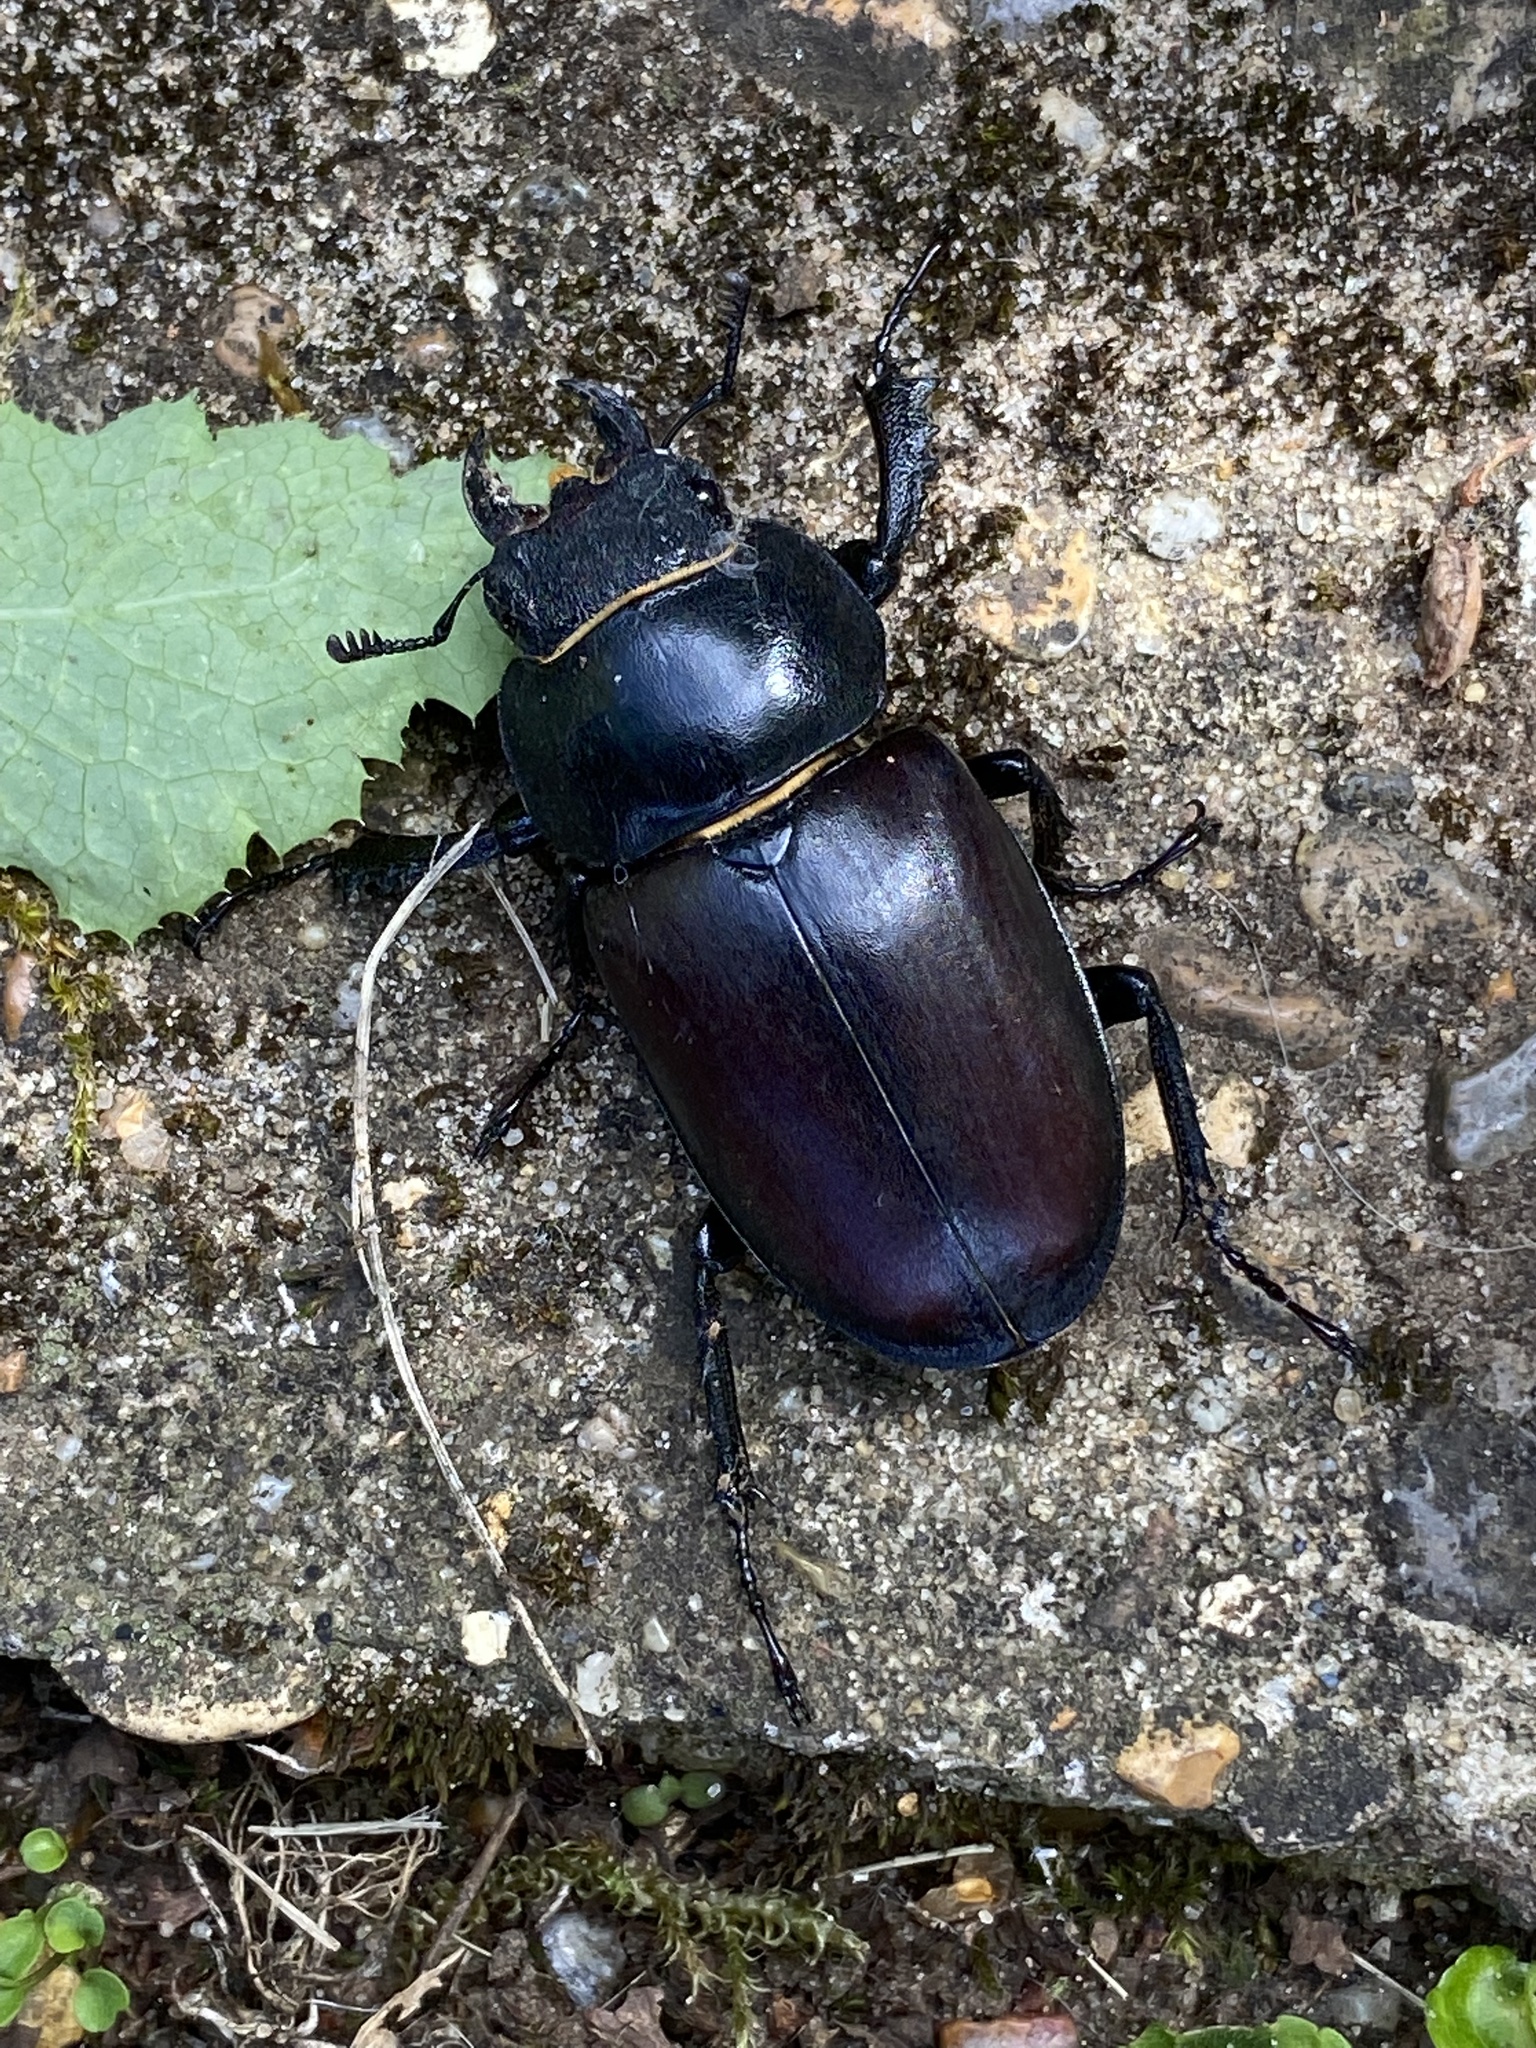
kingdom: Animalia
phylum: Arthropoda
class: Insecta
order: Coleoptera
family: Lucanidae
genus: Lucanus
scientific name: Lucanus cervus
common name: Stag beetle
